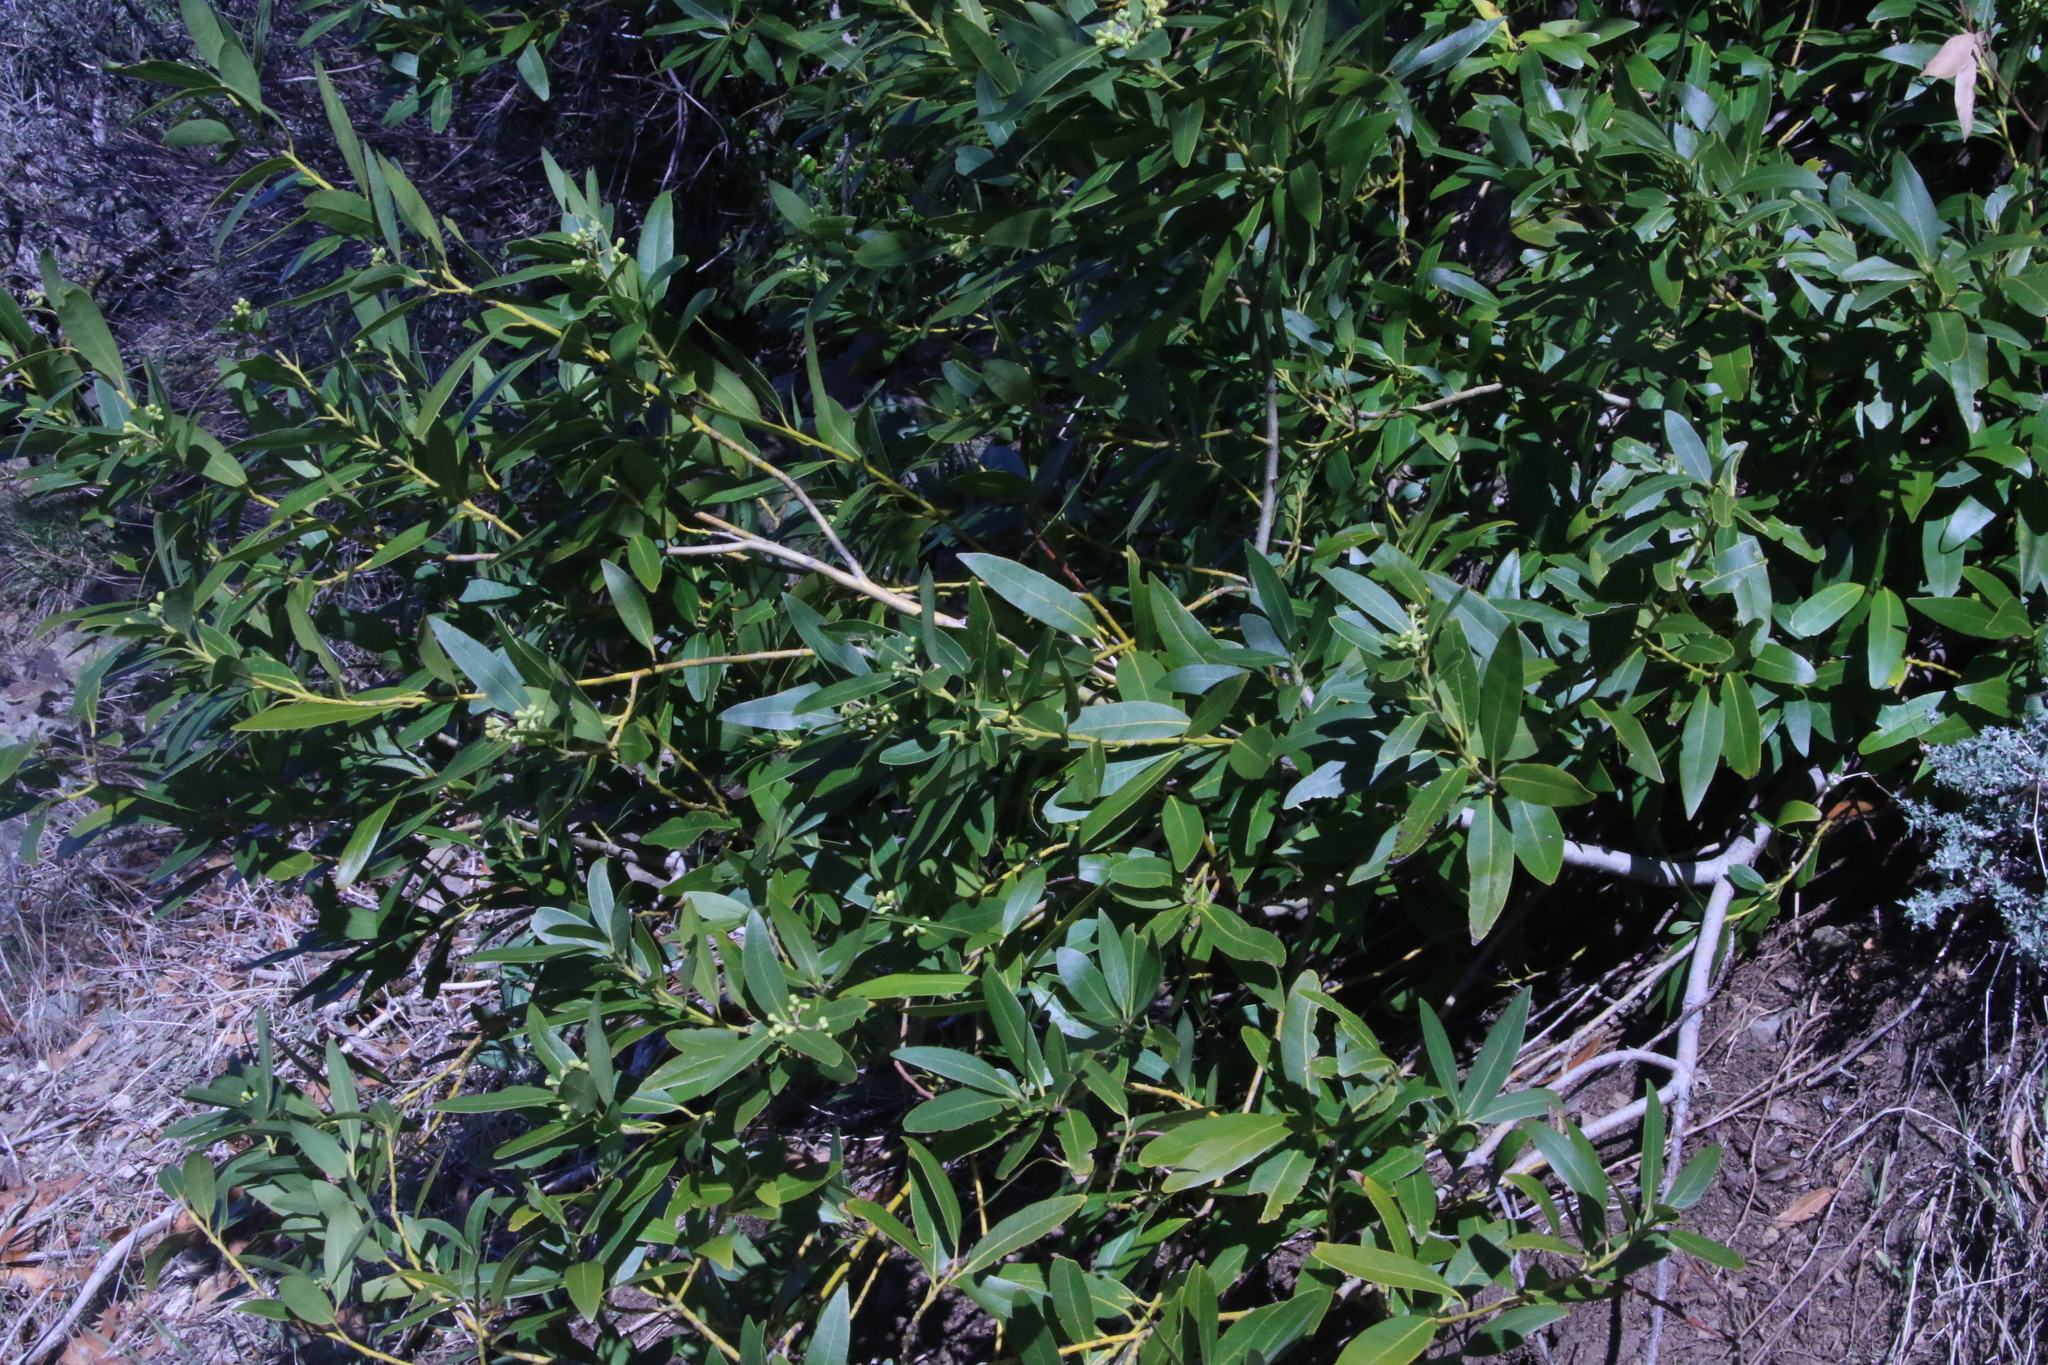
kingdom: Plantae
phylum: Tracheophyta
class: Magnoliopsida
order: Laurales
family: Lauraceae
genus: Umbellularia
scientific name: Umbellularia californica
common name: California bay
